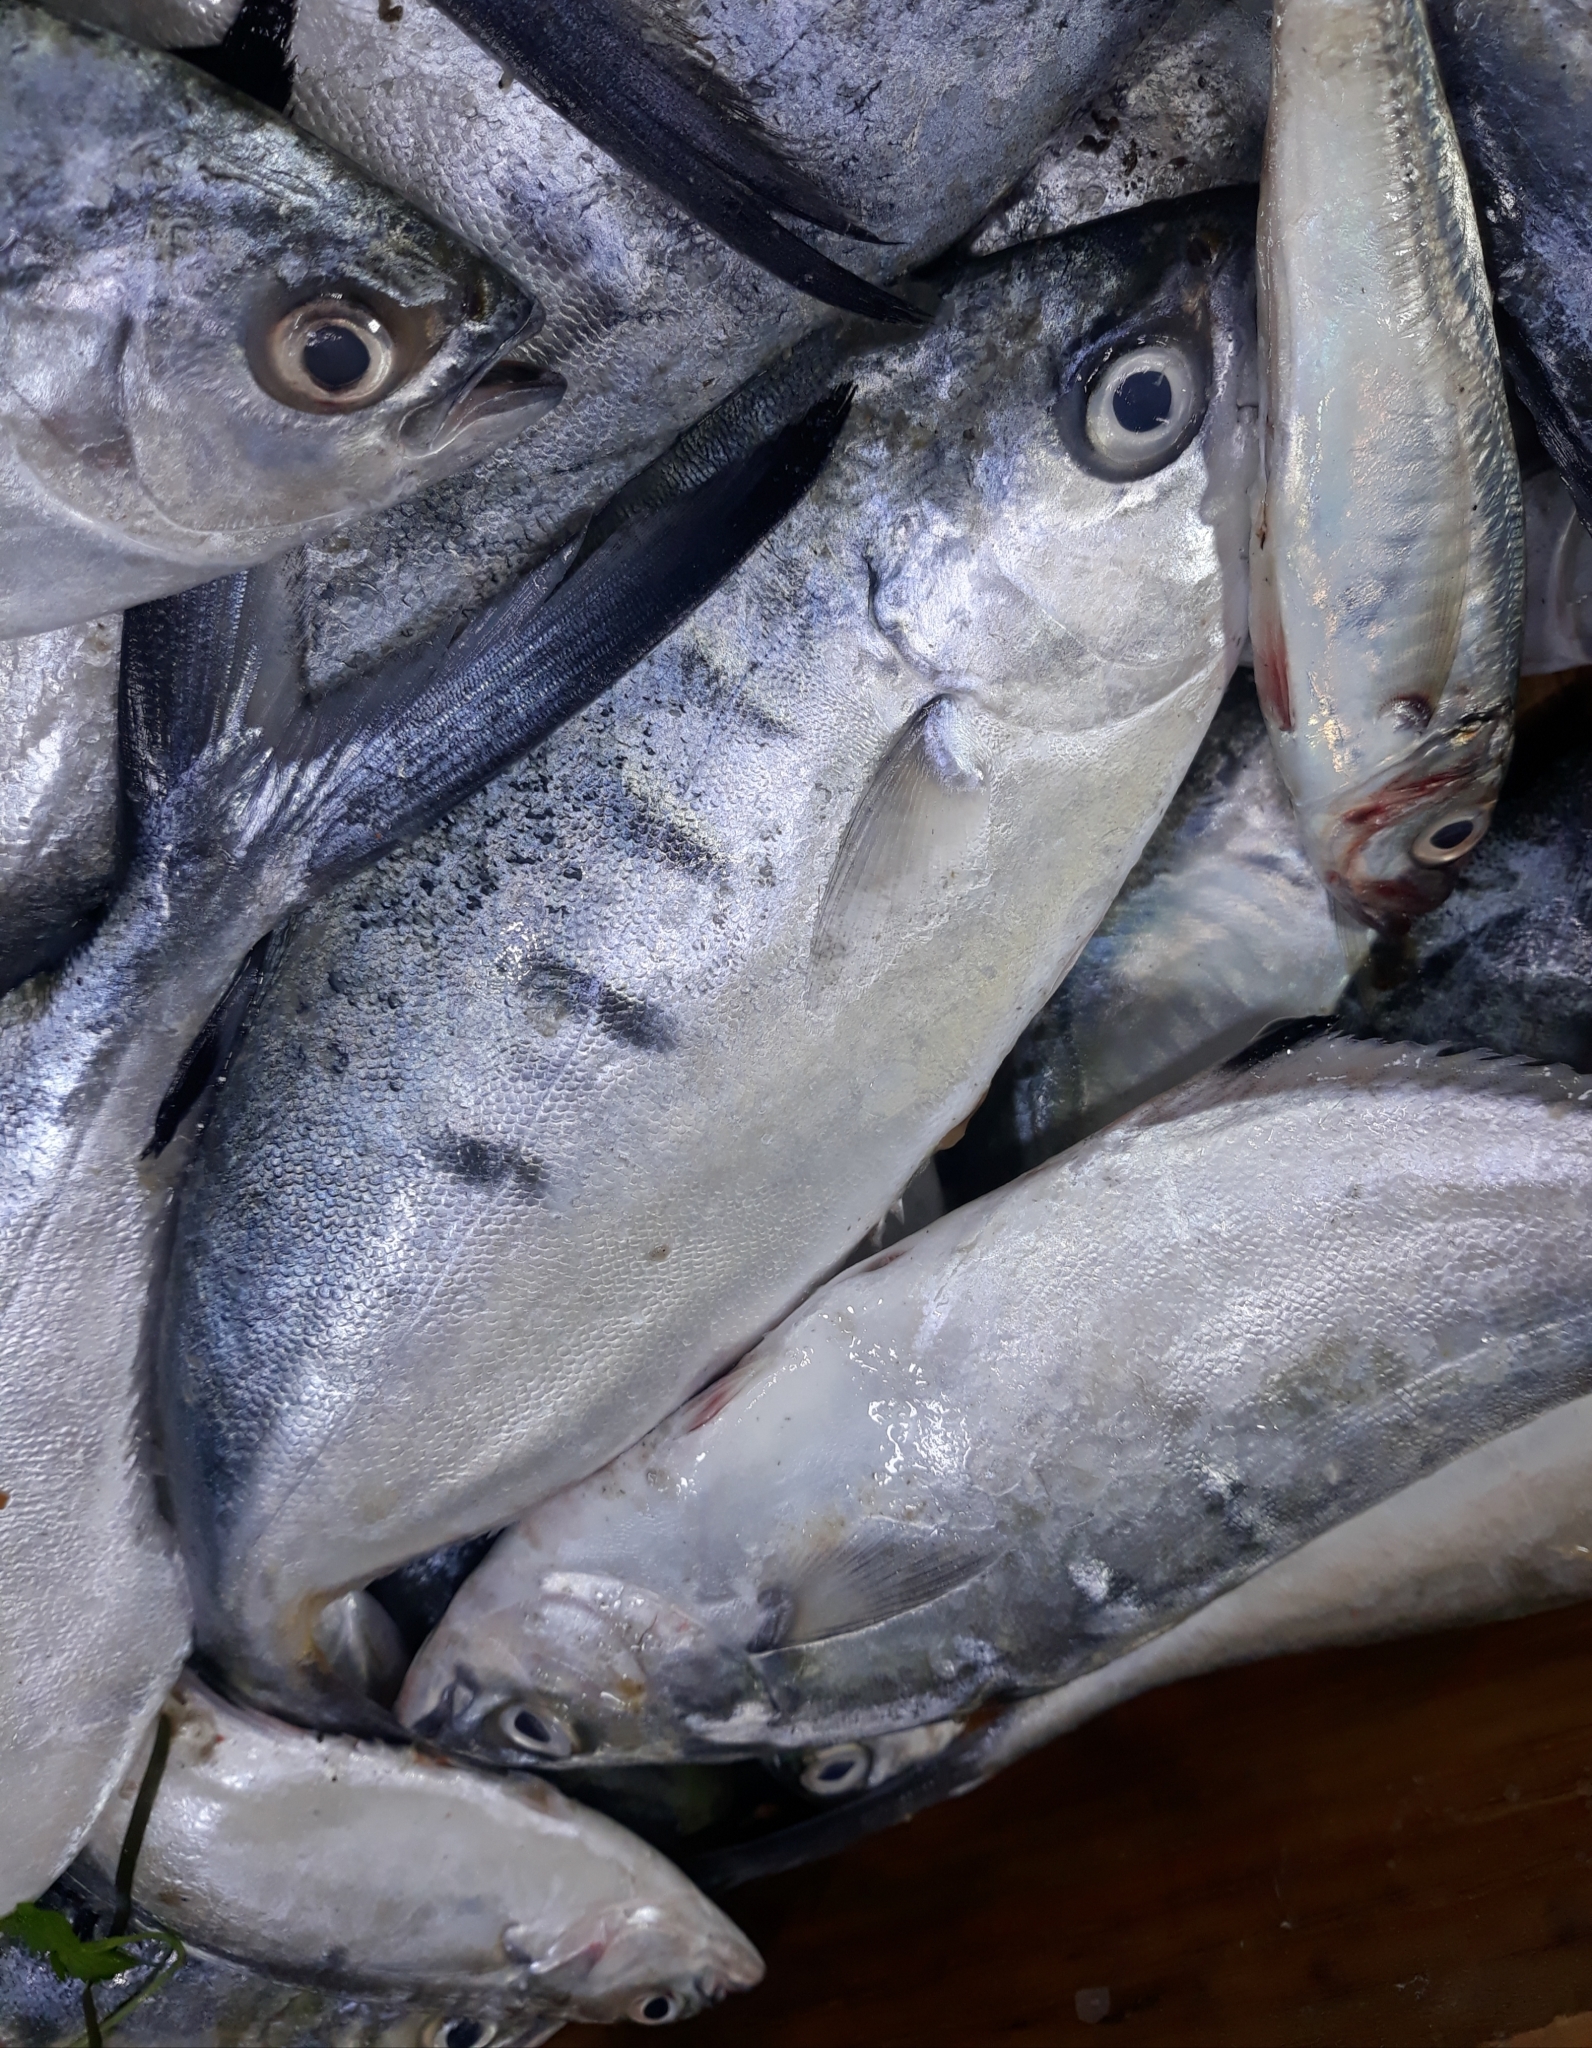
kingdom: Animalia
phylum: Chordata
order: Perciformes
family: Carangidae
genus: Trachinotus
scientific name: Trachinotus ovatus
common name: Pompano
